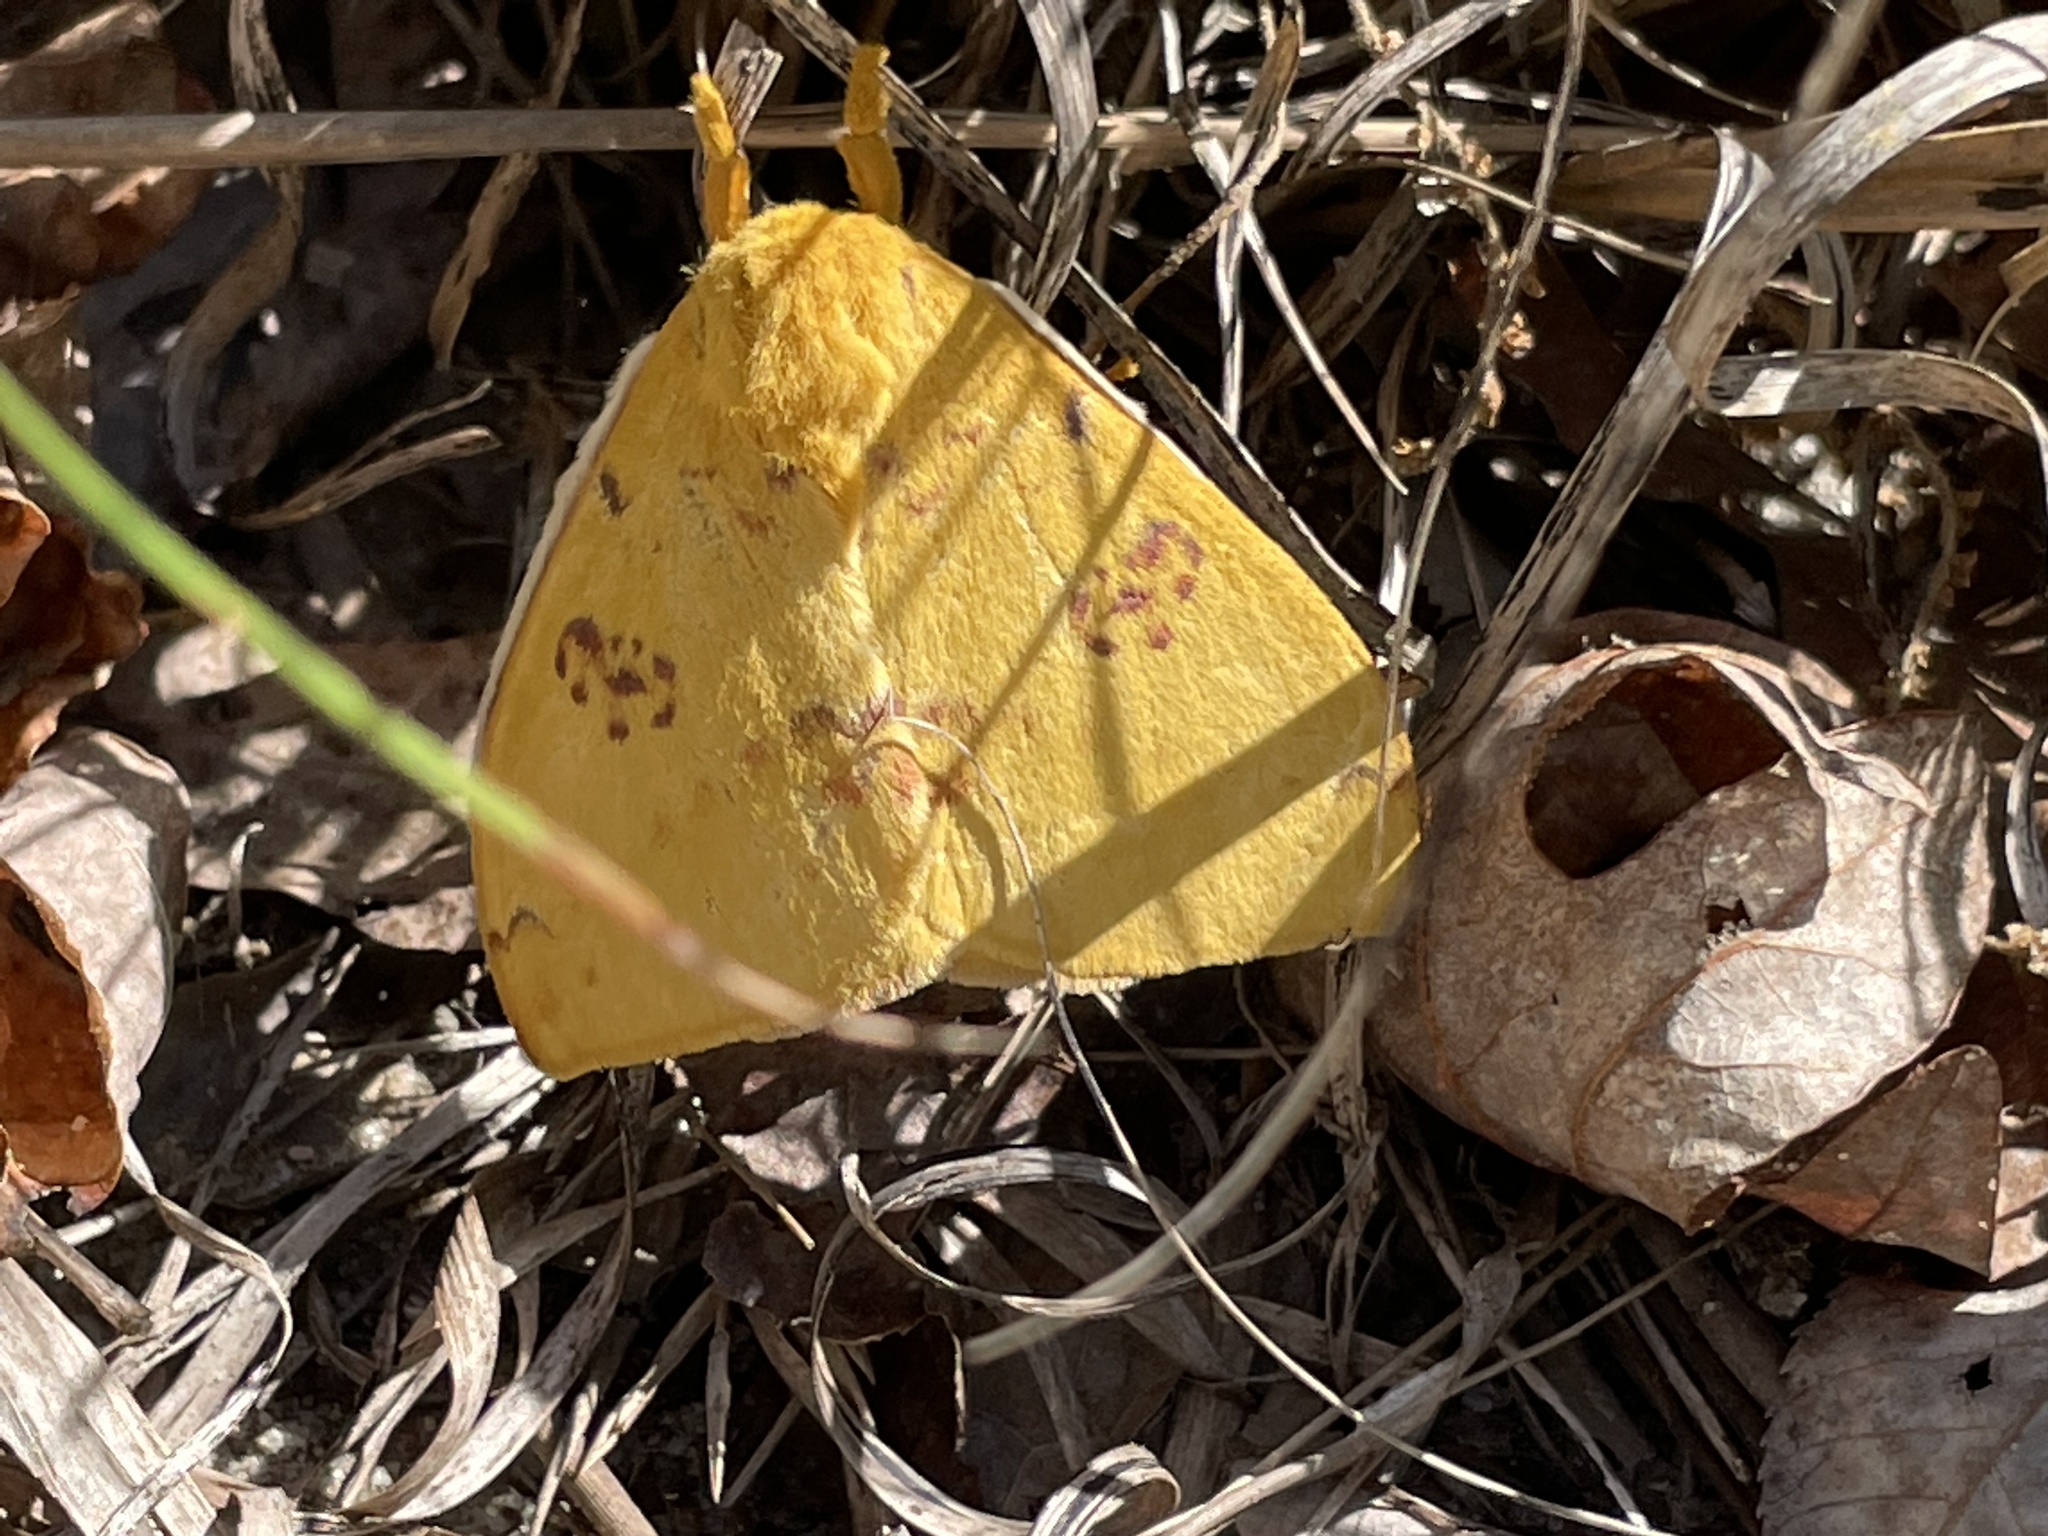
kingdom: Animalia
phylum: Arthropoda
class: Insecta
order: Lepidoptera
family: Saturniidae
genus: Automeris
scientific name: Automeris io
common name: Io moth
